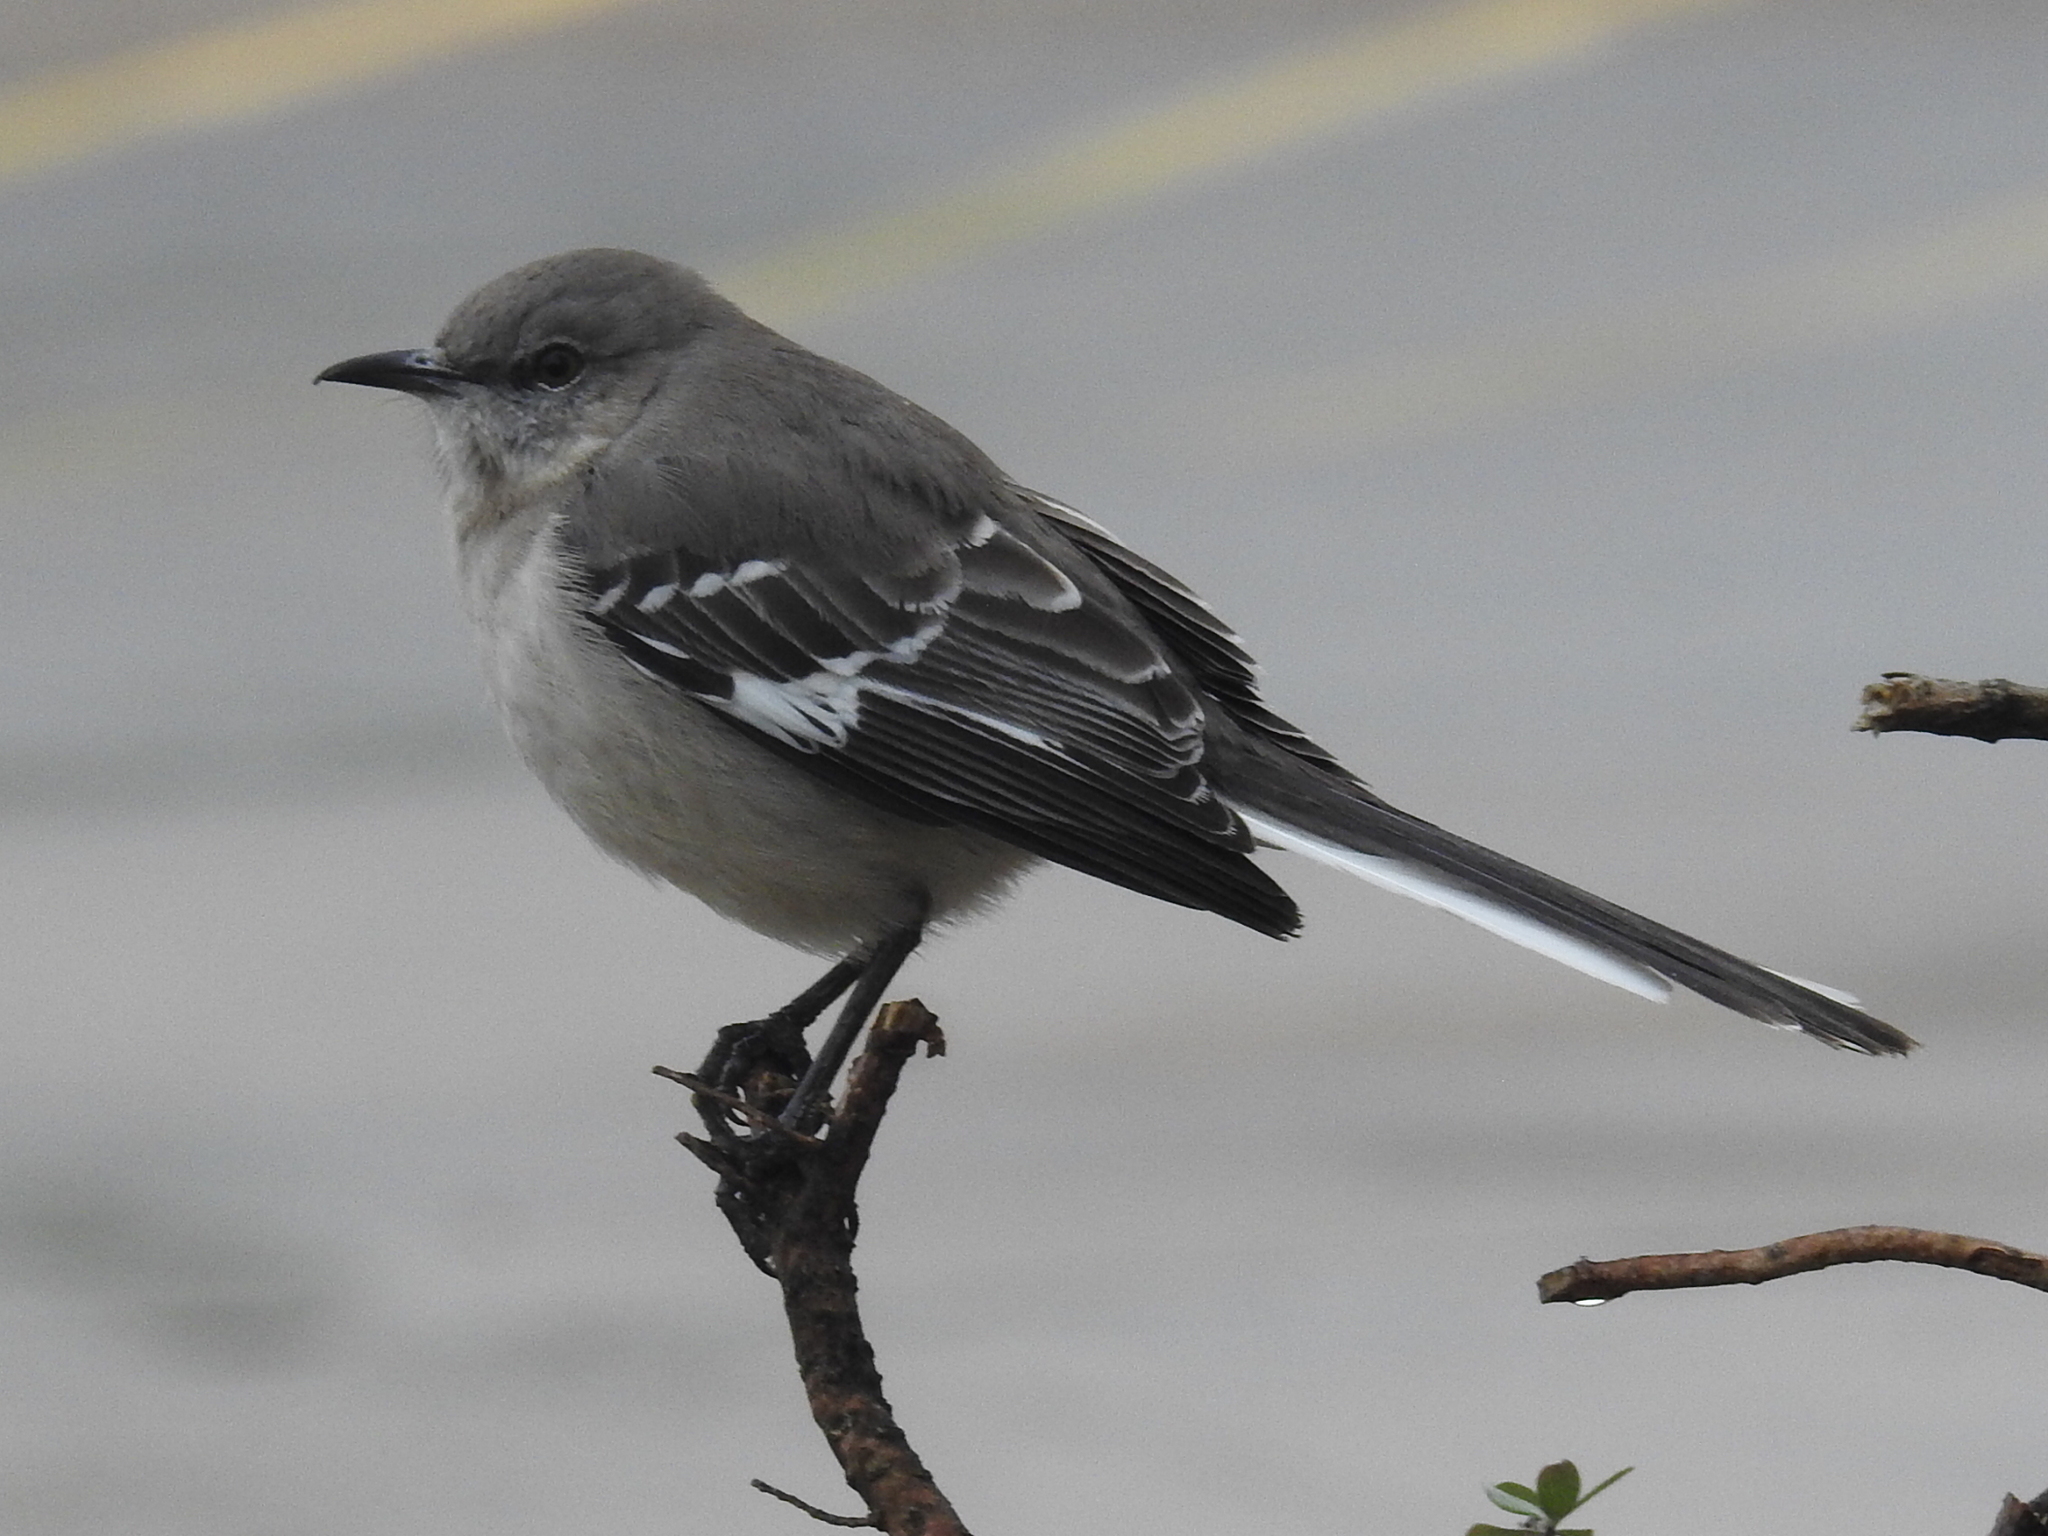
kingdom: Animalia
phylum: Chordata
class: Aves
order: Passeriformes
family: Mimidae
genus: Mimus
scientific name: Mimus polyglottos
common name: Northern mockingbird
